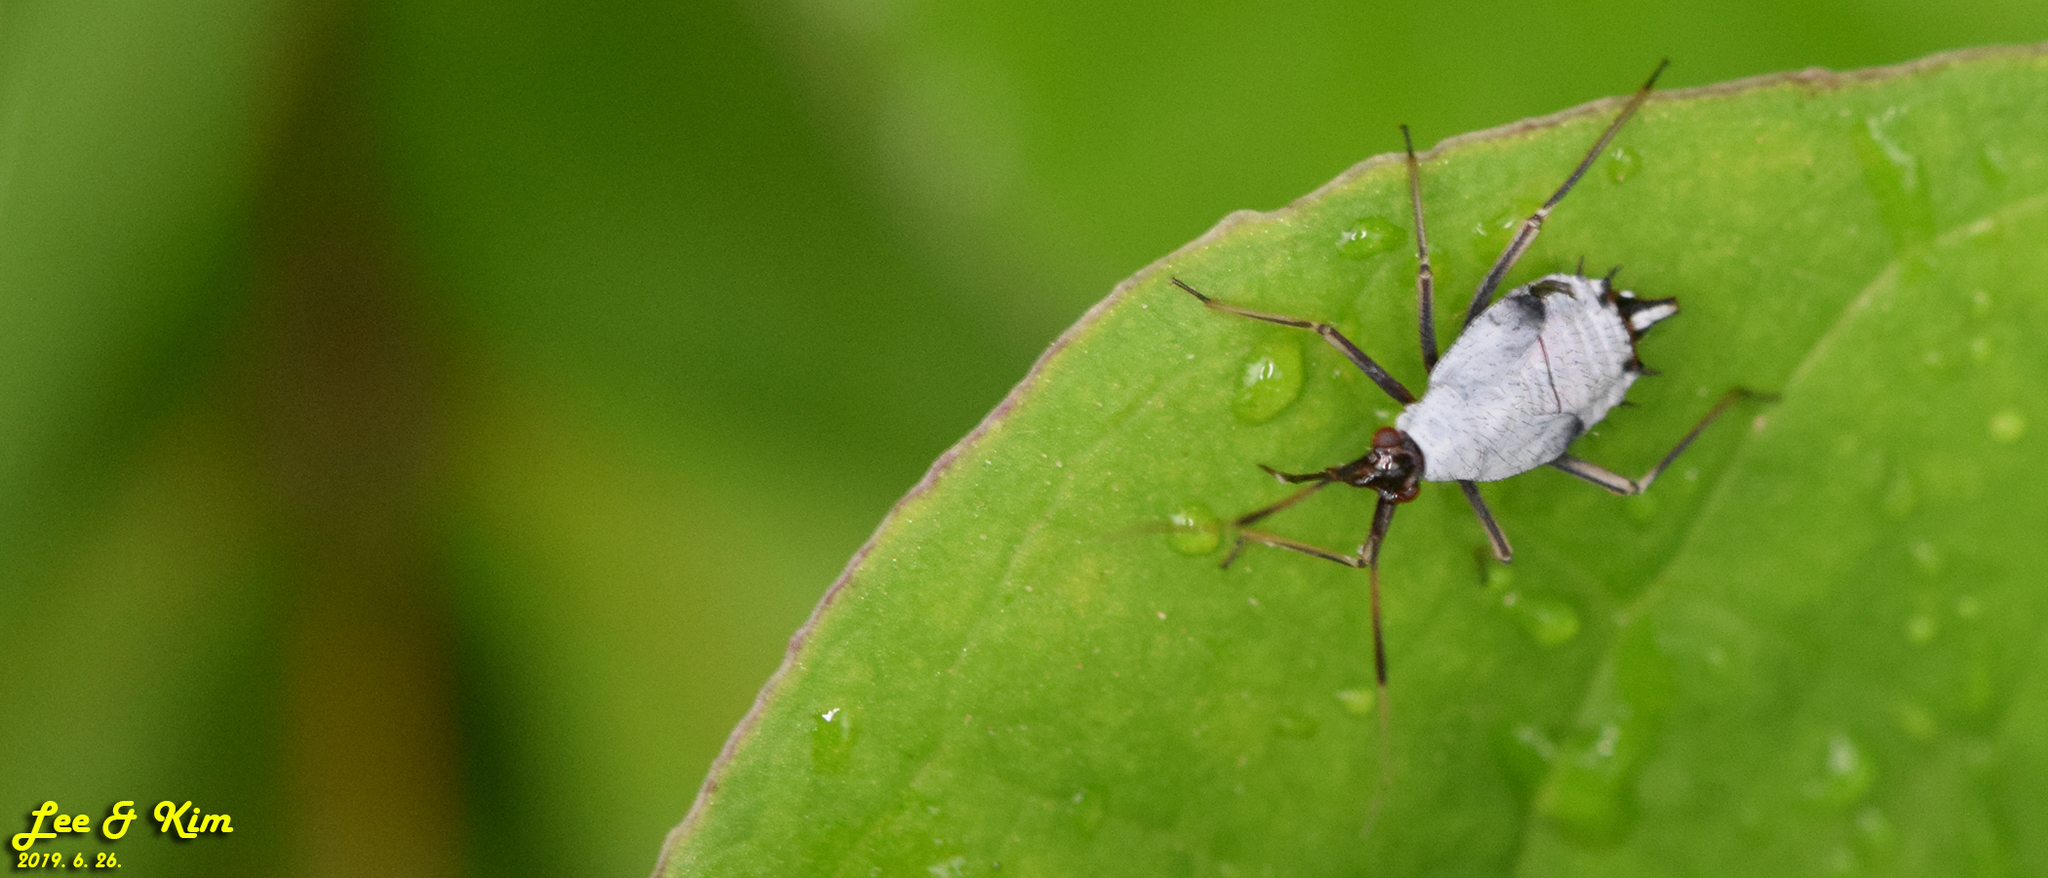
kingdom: Animalia
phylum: Arthropoda
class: Insecta
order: Hemiptera
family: Miridae
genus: Deraeocoris
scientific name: Deraeocoris ater
